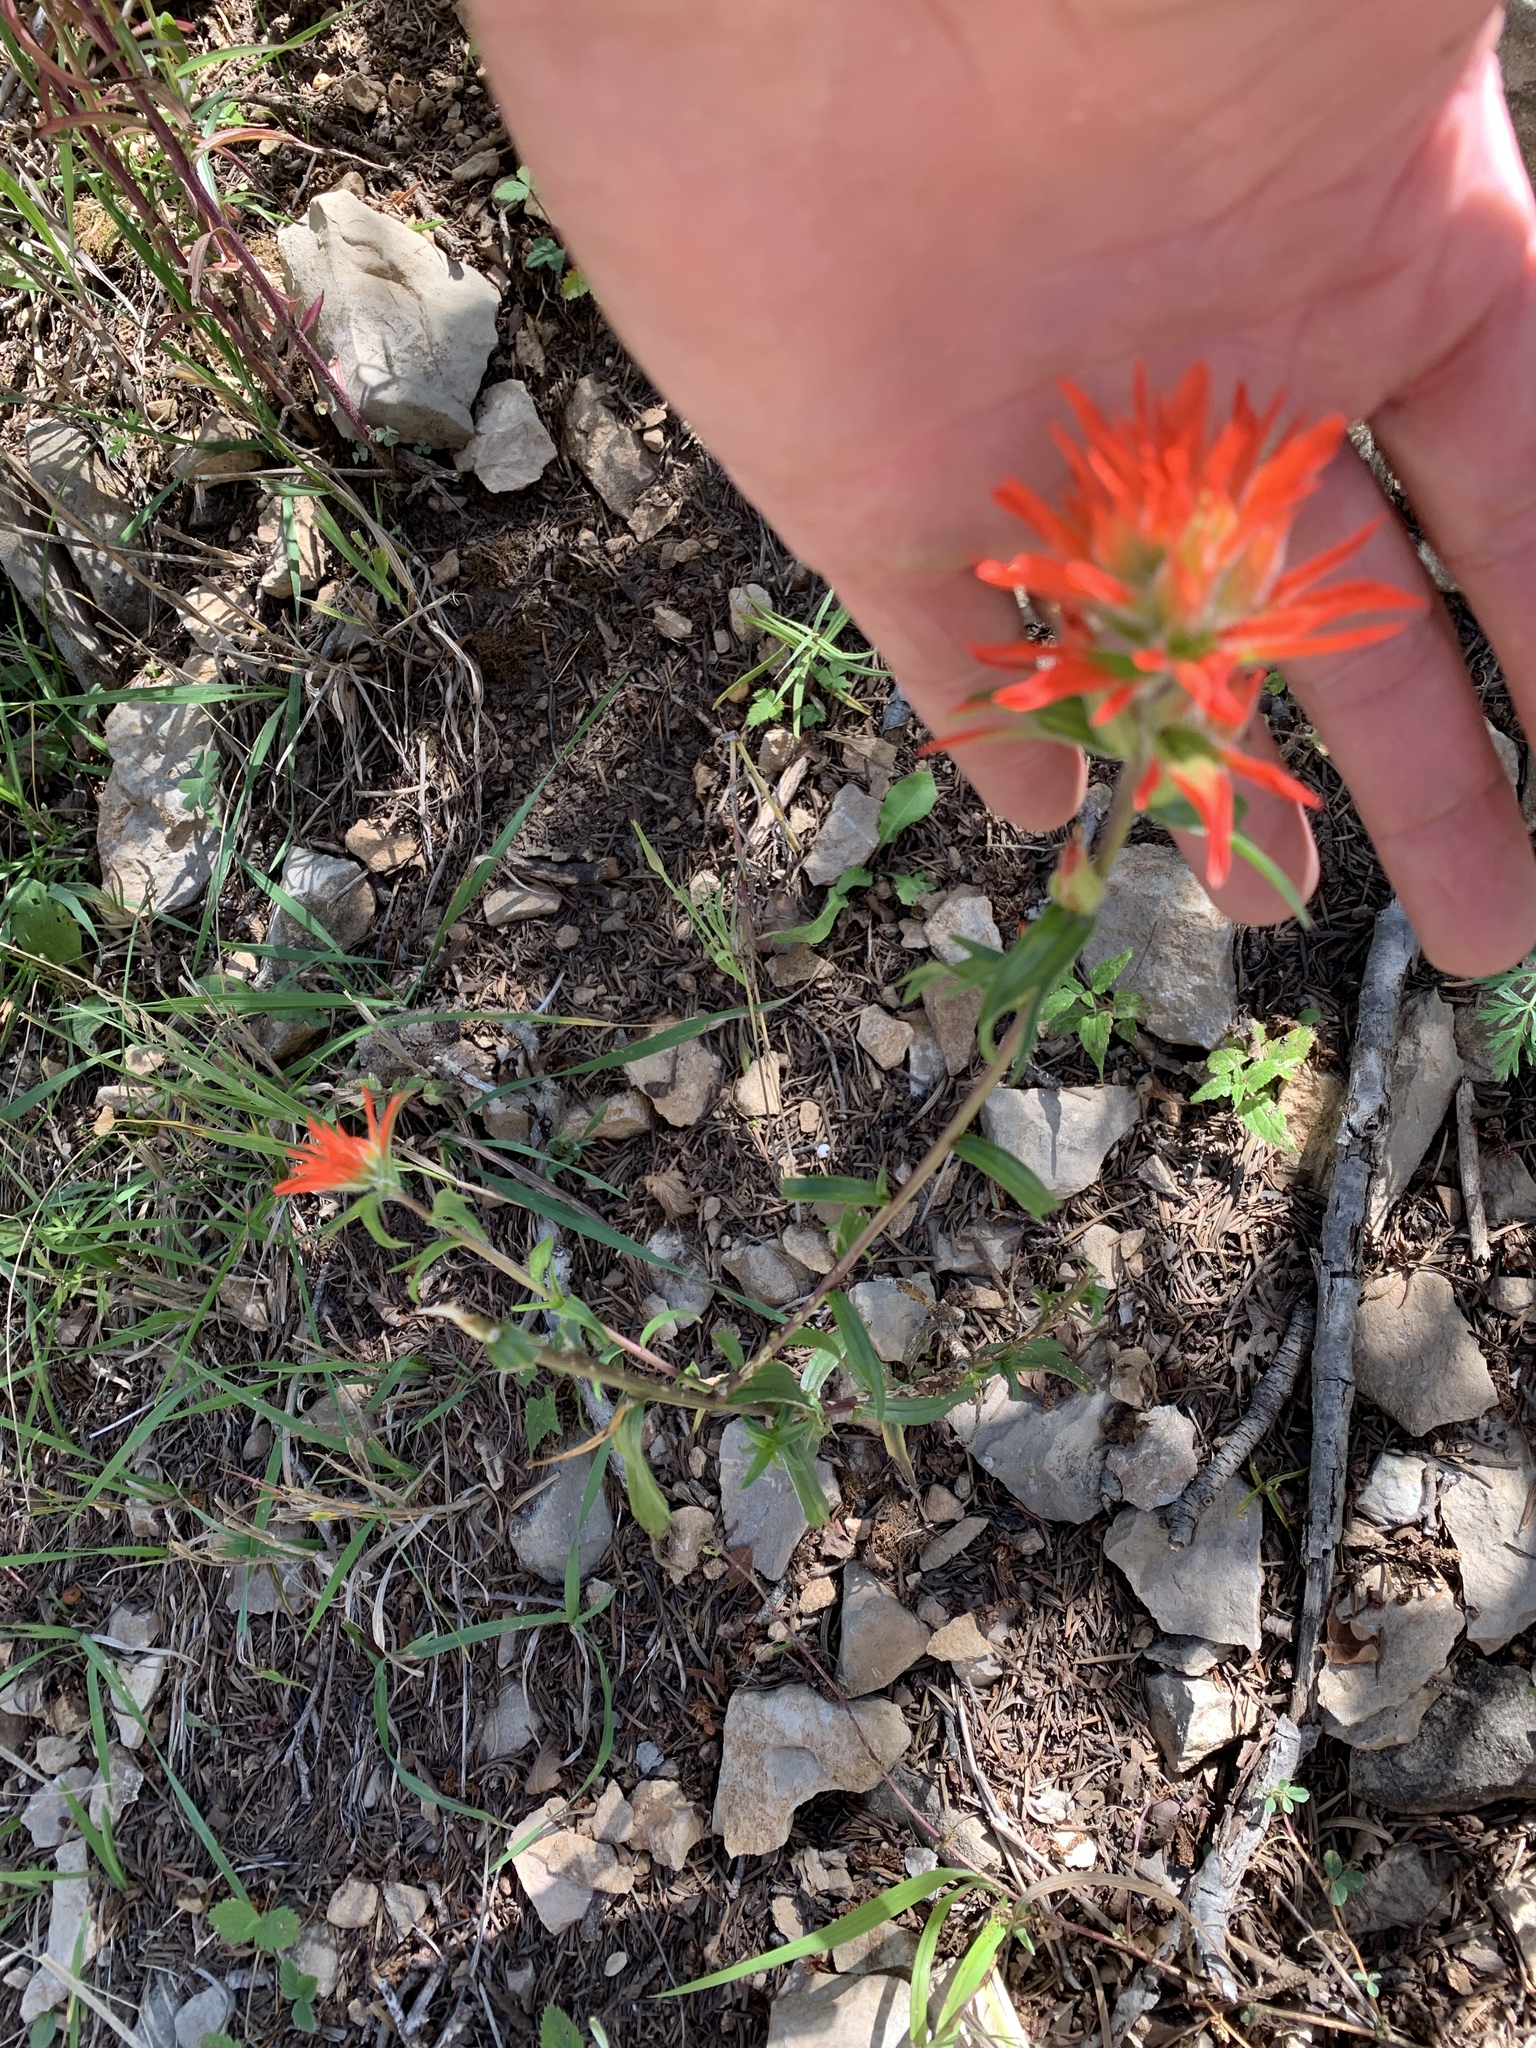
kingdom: Plantae
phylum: Tracheophyta
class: Magnoliopsida
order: Lamiales
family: Orobanchaceae
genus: Castilleja
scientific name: Castilleja wootonii
